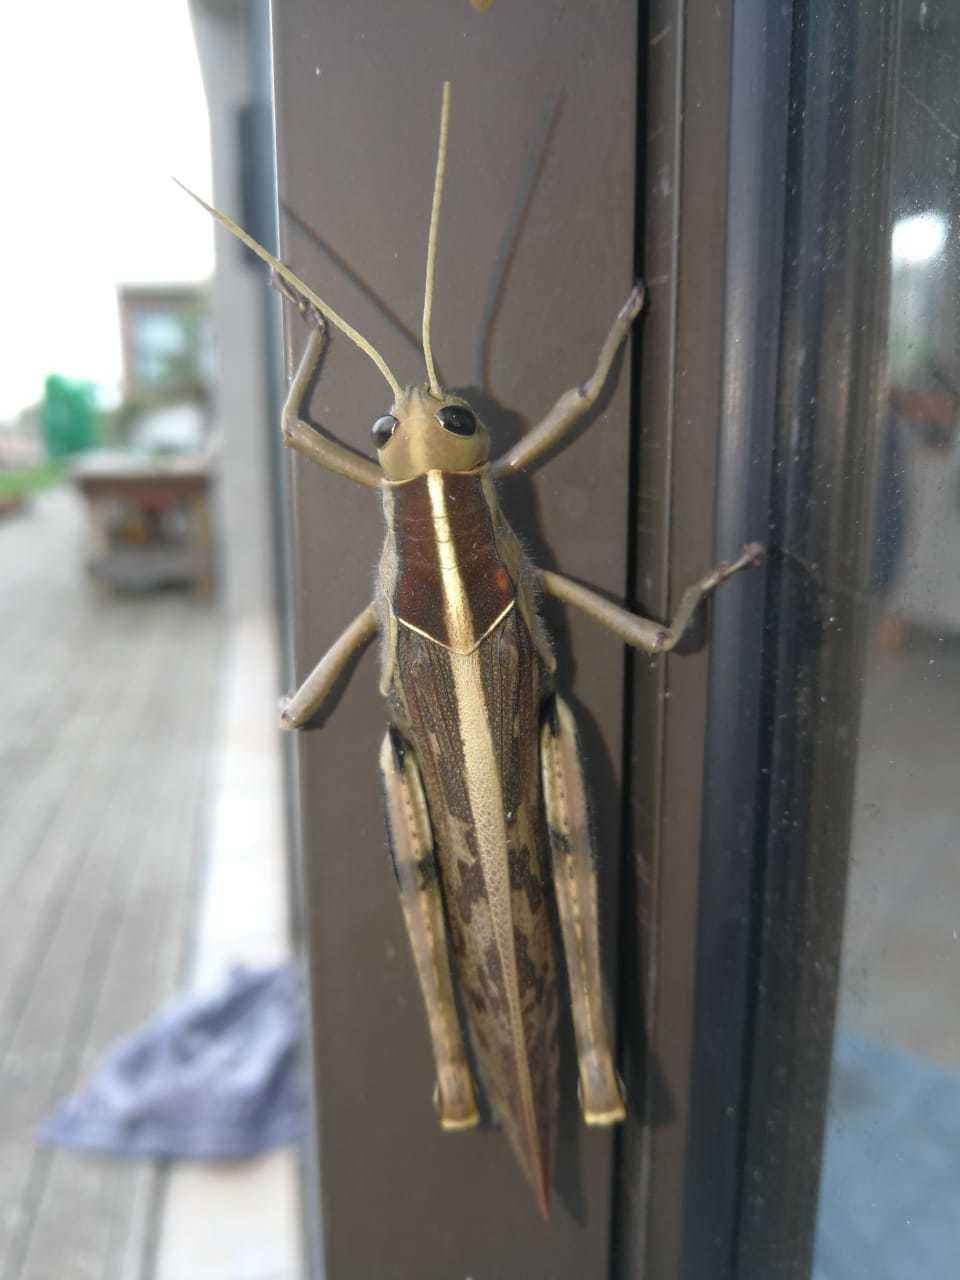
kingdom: Animalia
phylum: Arthropoda
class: Insecta
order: Orthoptera
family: Acrididae
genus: Acanthacris
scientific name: Acanthacris ruficornis
